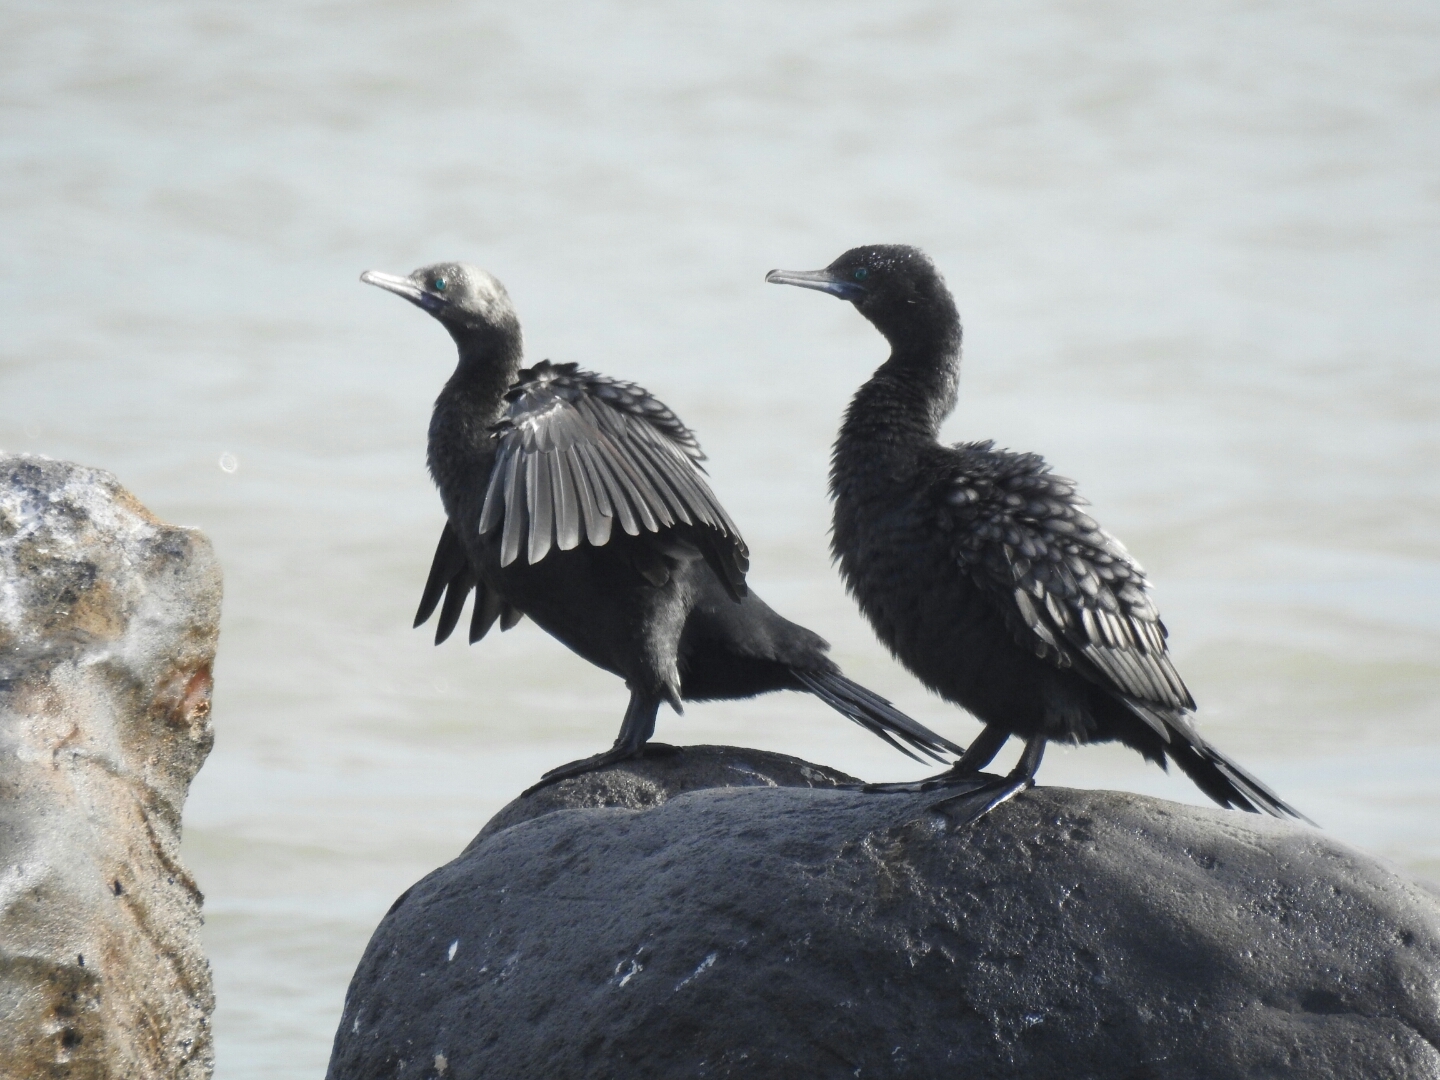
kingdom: Animalia
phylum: Chordata
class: Aves
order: Suliformes
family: Phalacrocoracidae
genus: Phalacrocorax
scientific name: Phalacrocorax sulcirostris
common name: Little black cormorant
